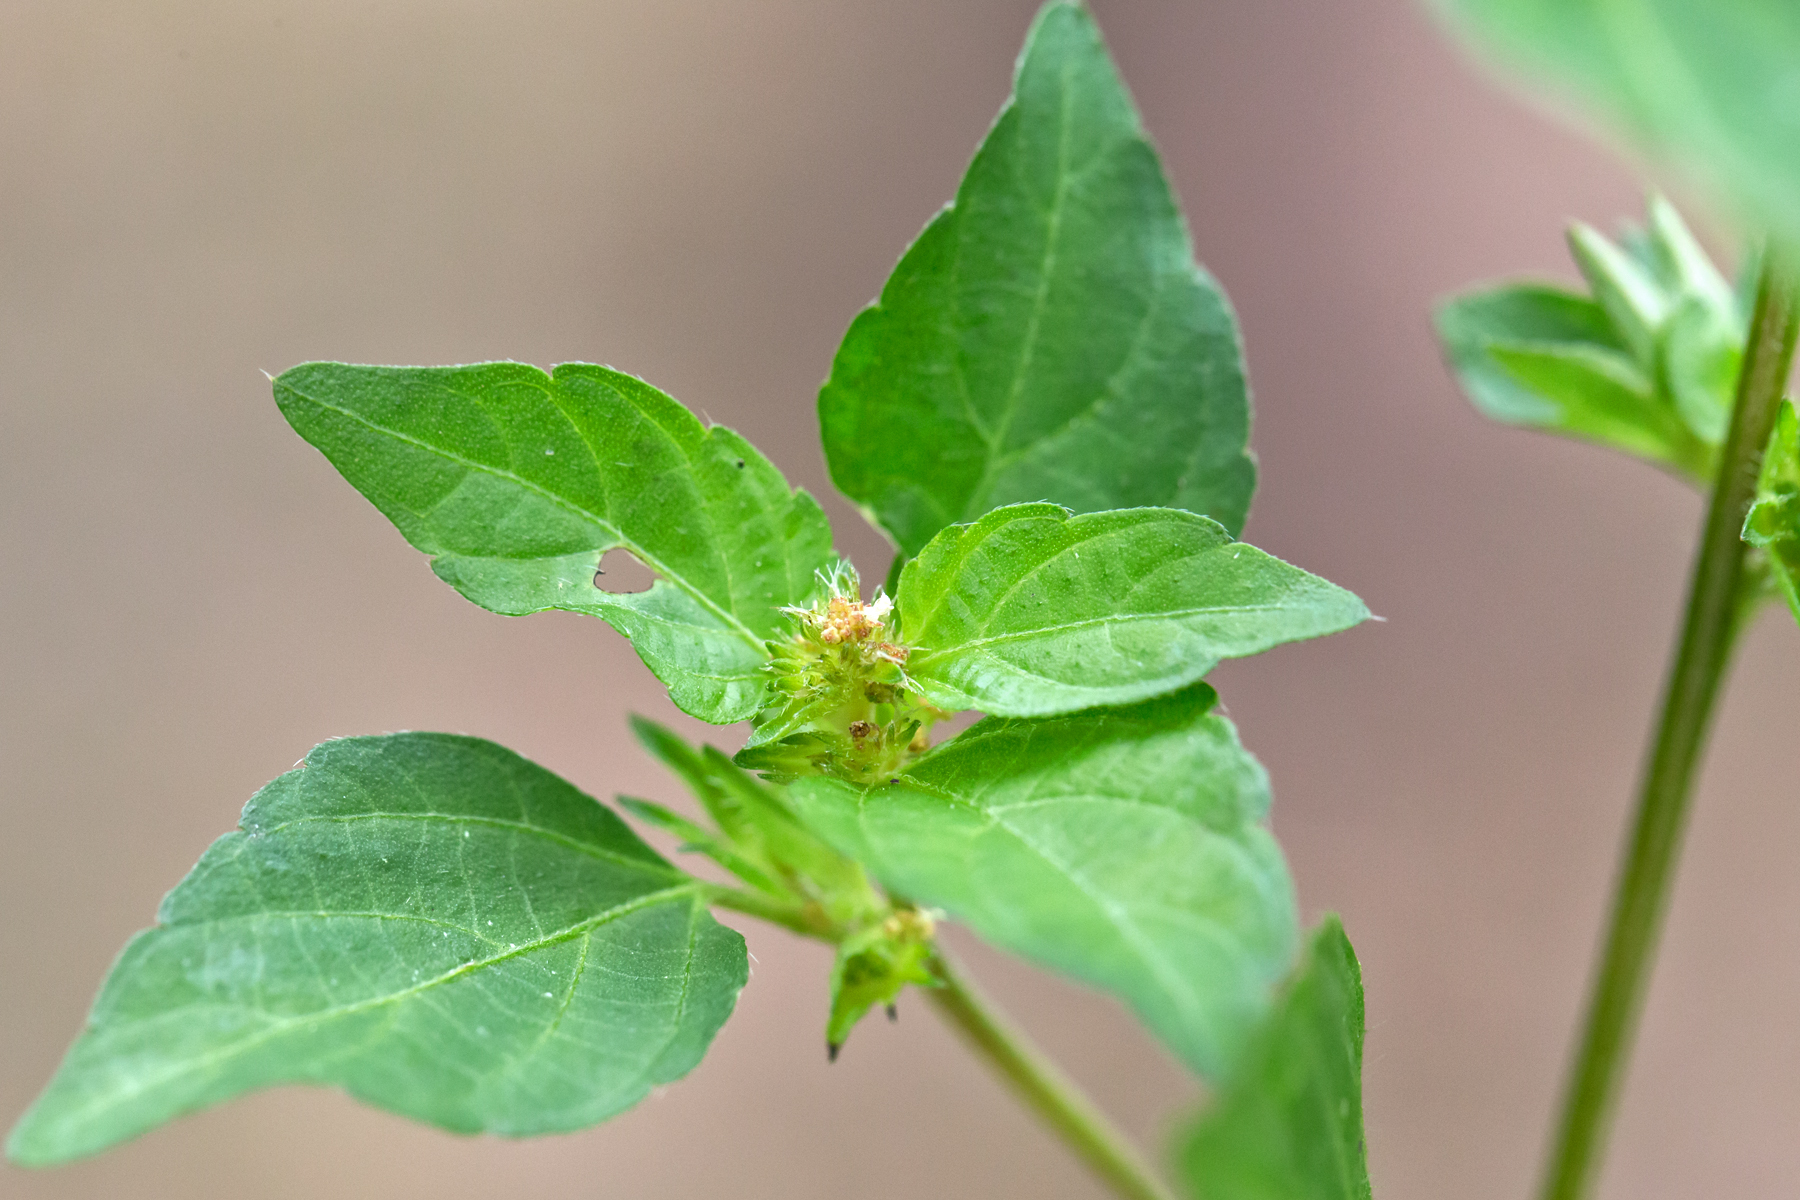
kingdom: Plantae
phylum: Tracheophyta
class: Magnoliopsida
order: Malpighiales
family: Euphorbiaceae
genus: Acalypha
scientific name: Acalypha rhomboidea
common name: Rhombic copperleaf
